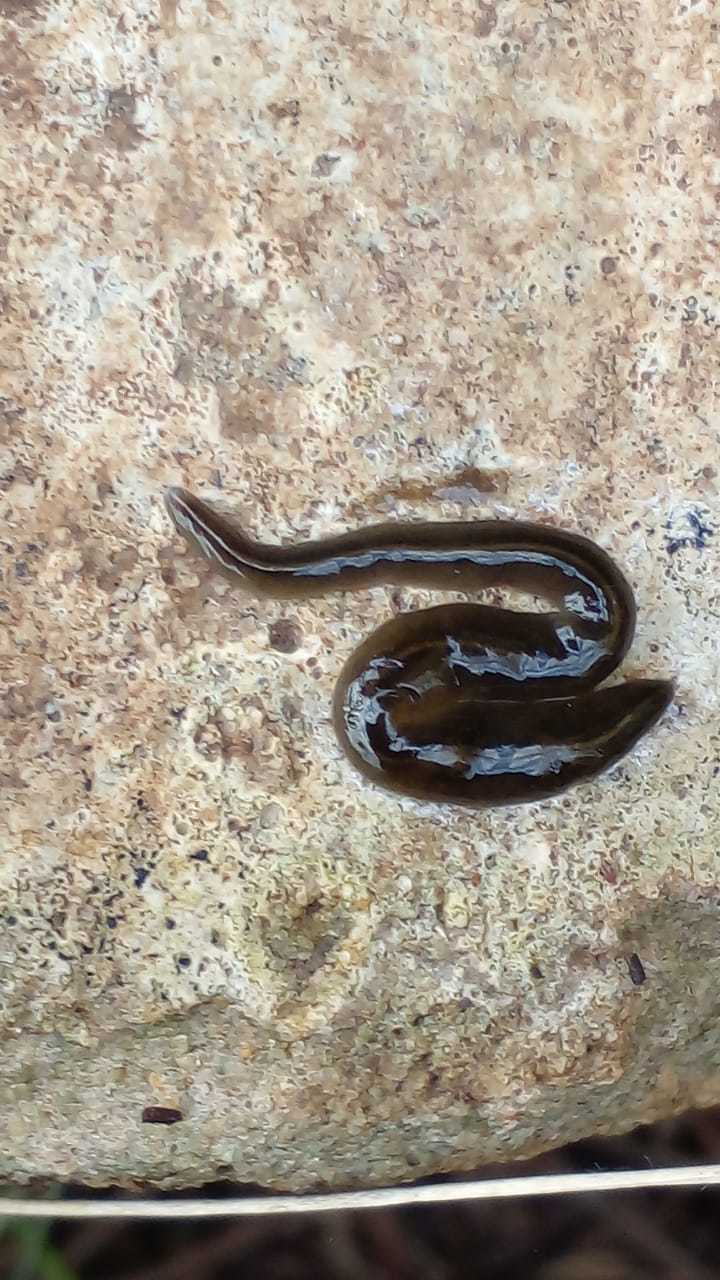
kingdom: Animalia
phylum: Platyhelminthes
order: Tricladida
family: Geoplanidae
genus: Obama
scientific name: Obama nungara
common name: Obama flatworm
